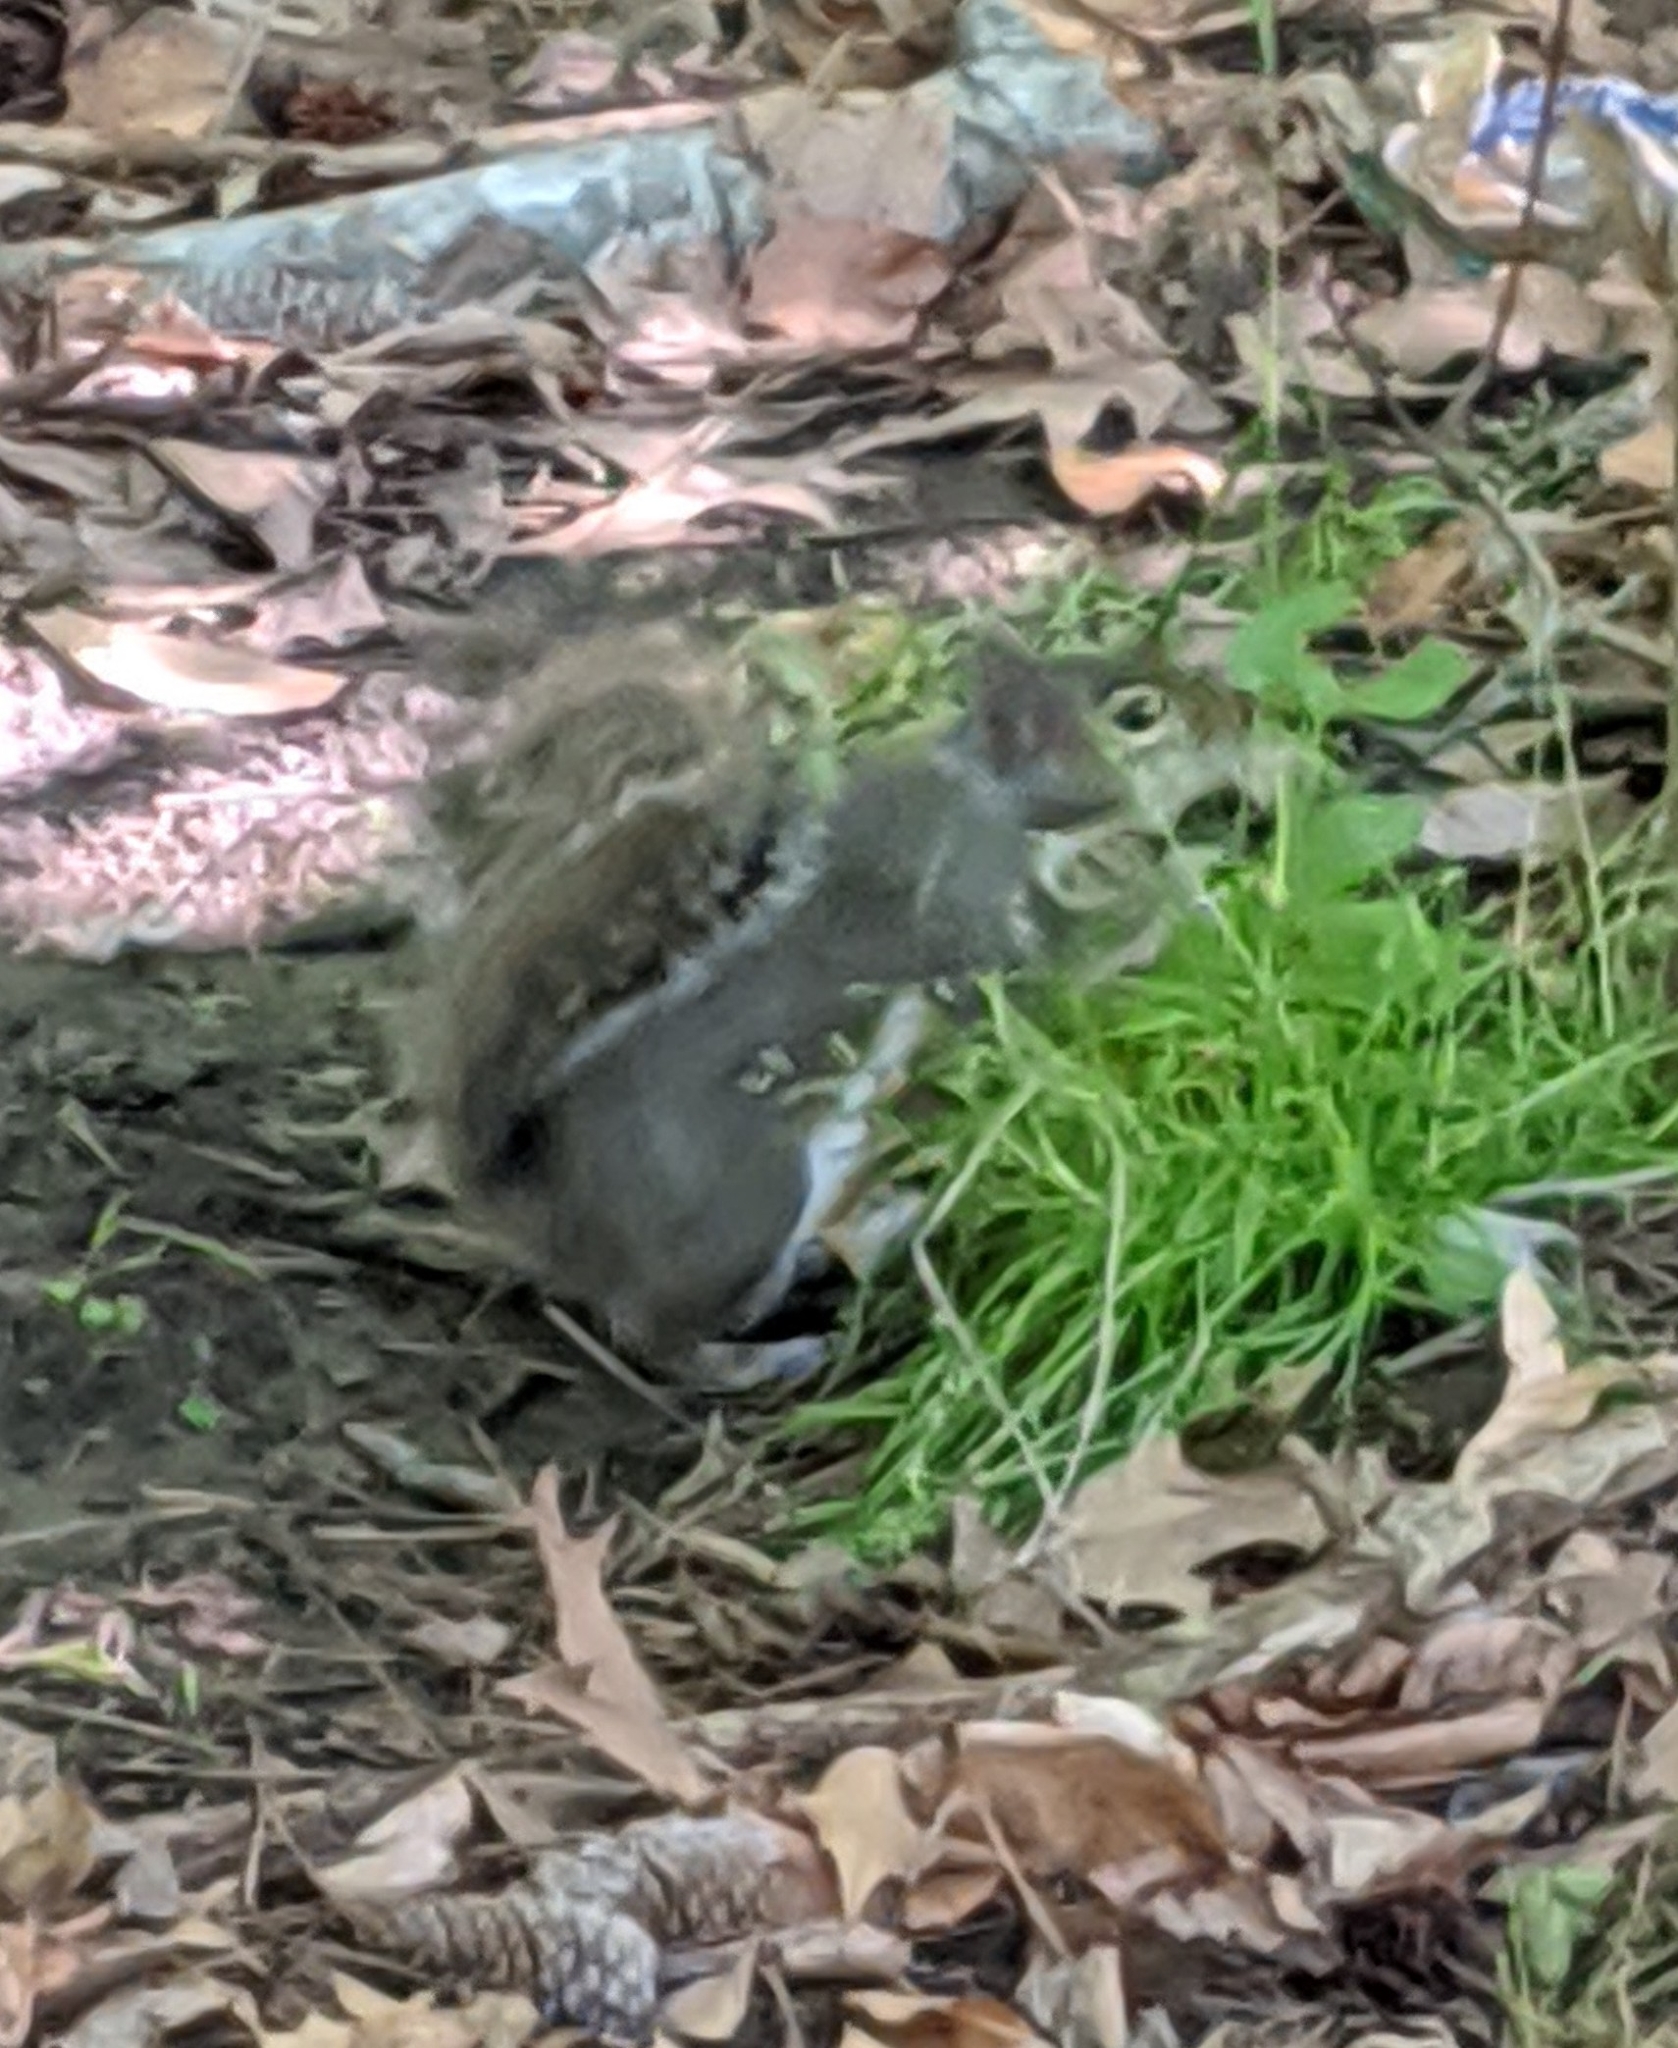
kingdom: Animalia
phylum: Chordata
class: Mammalia
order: Rodentia
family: Sciuridae
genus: Sciurus
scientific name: Sciurus carolinensis
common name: Eastern gray squirrel
